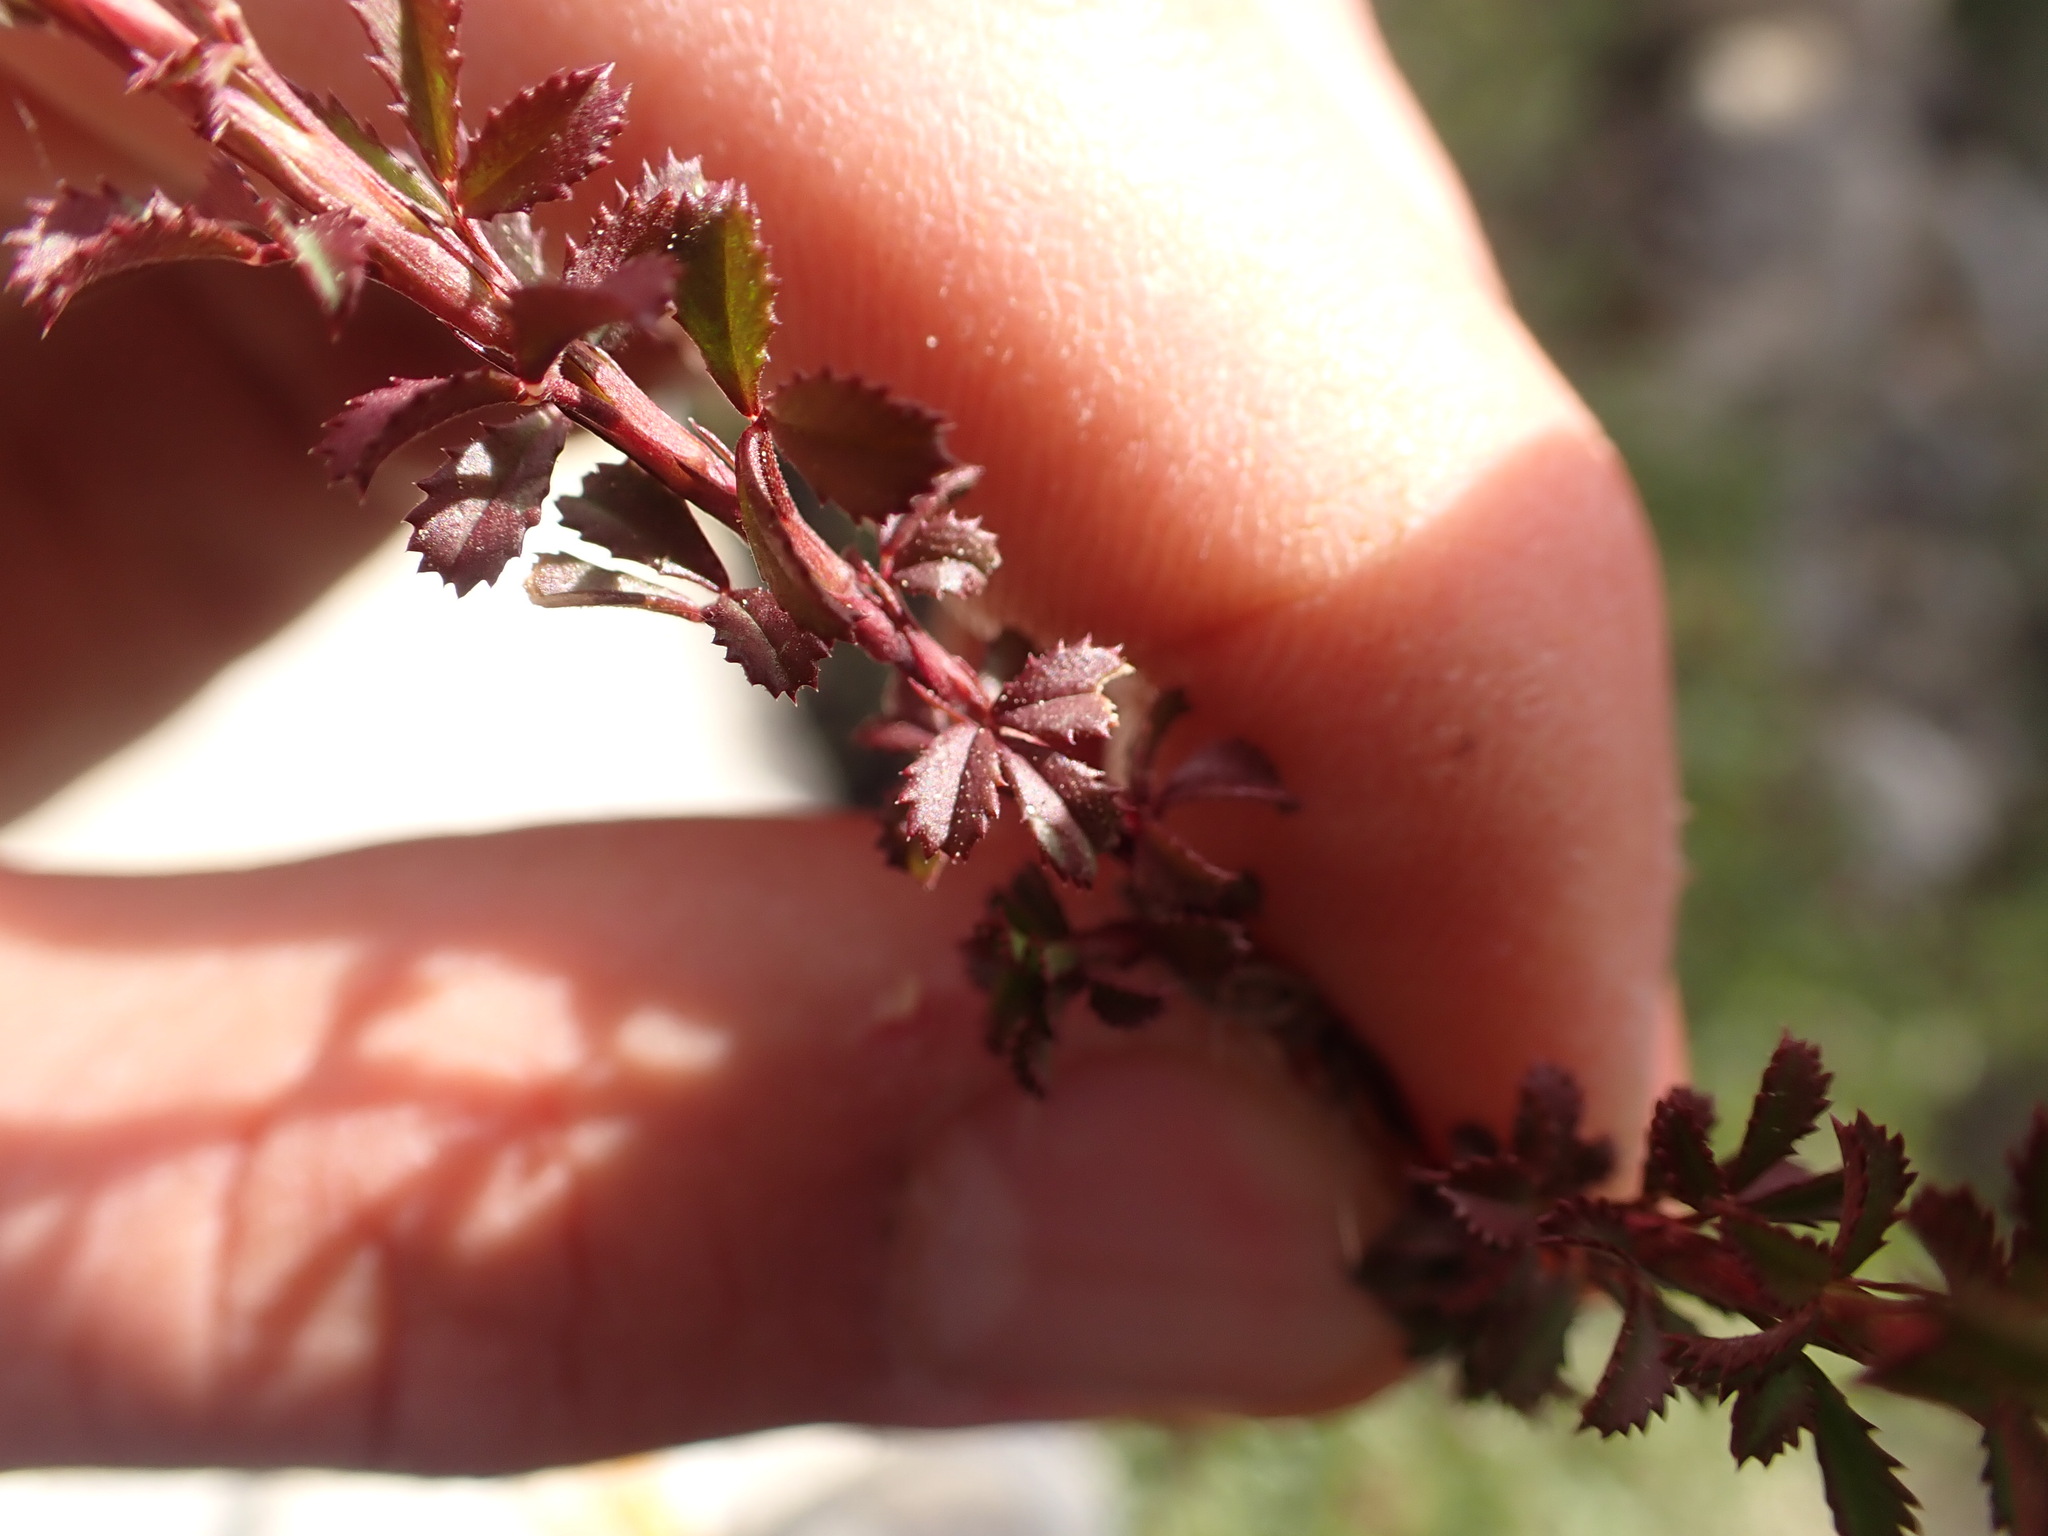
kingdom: Plantae
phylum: Tracheophyta
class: Magnoliopsida
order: Fabales
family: Fabaceae
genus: Ononis
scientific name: Ononis minutissima
